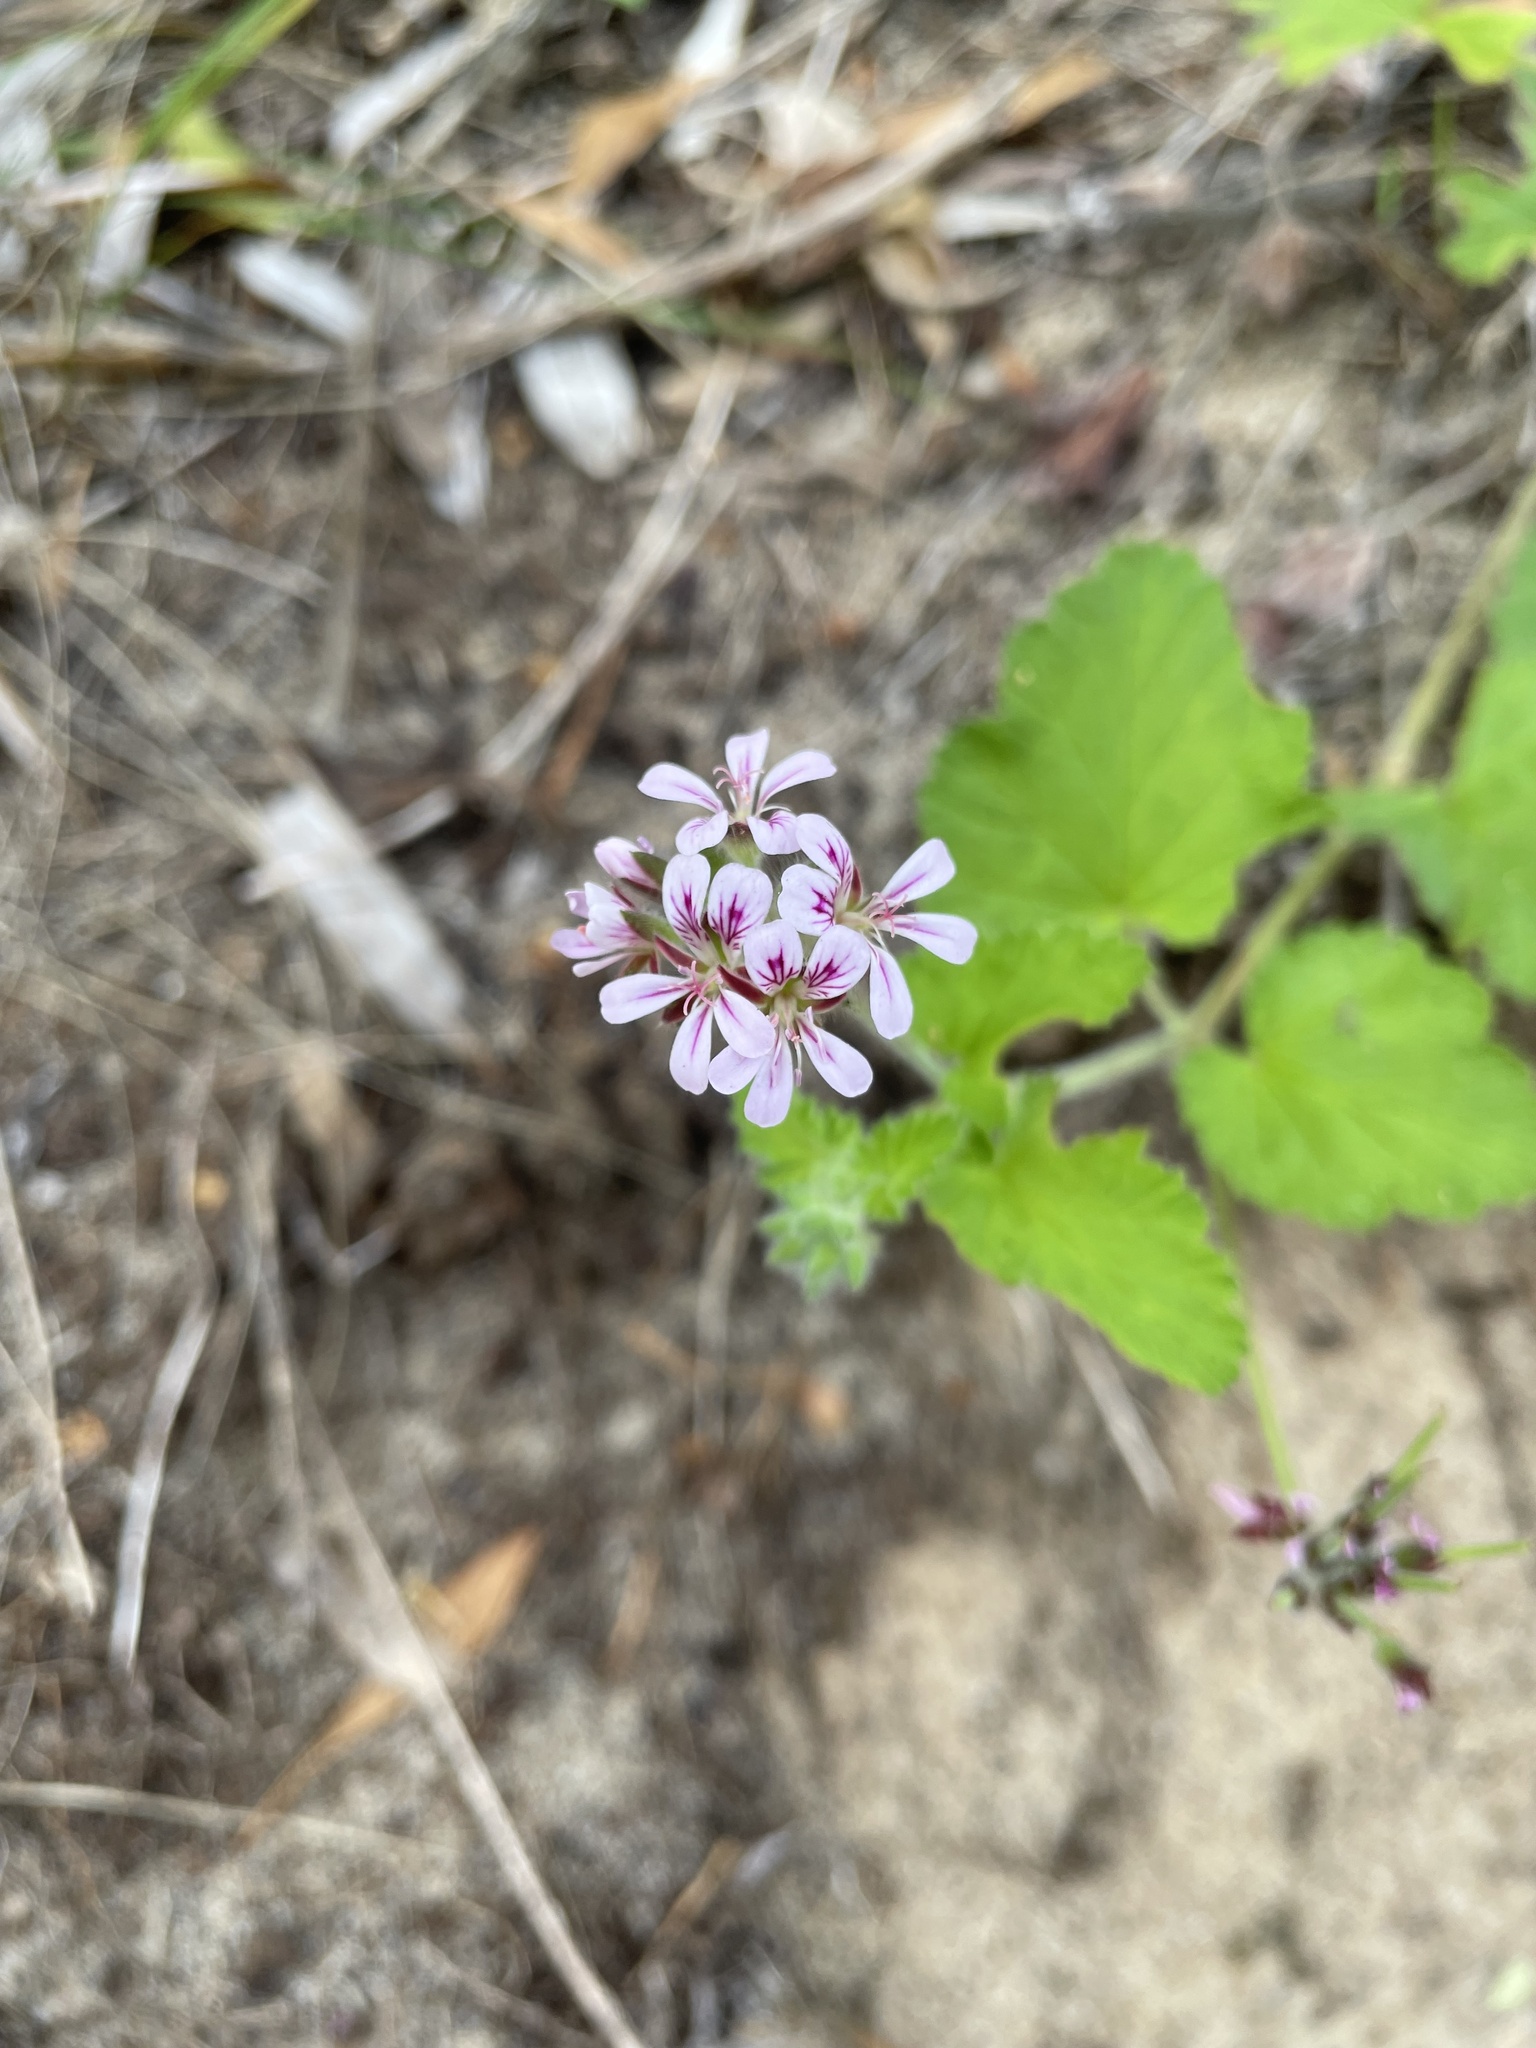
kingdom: Plantae
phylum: Tracheophyta
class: Magnoliopsida
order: Geraniales
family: Geraniaceae
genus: Pelargonium
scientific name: Pelargonium australe
